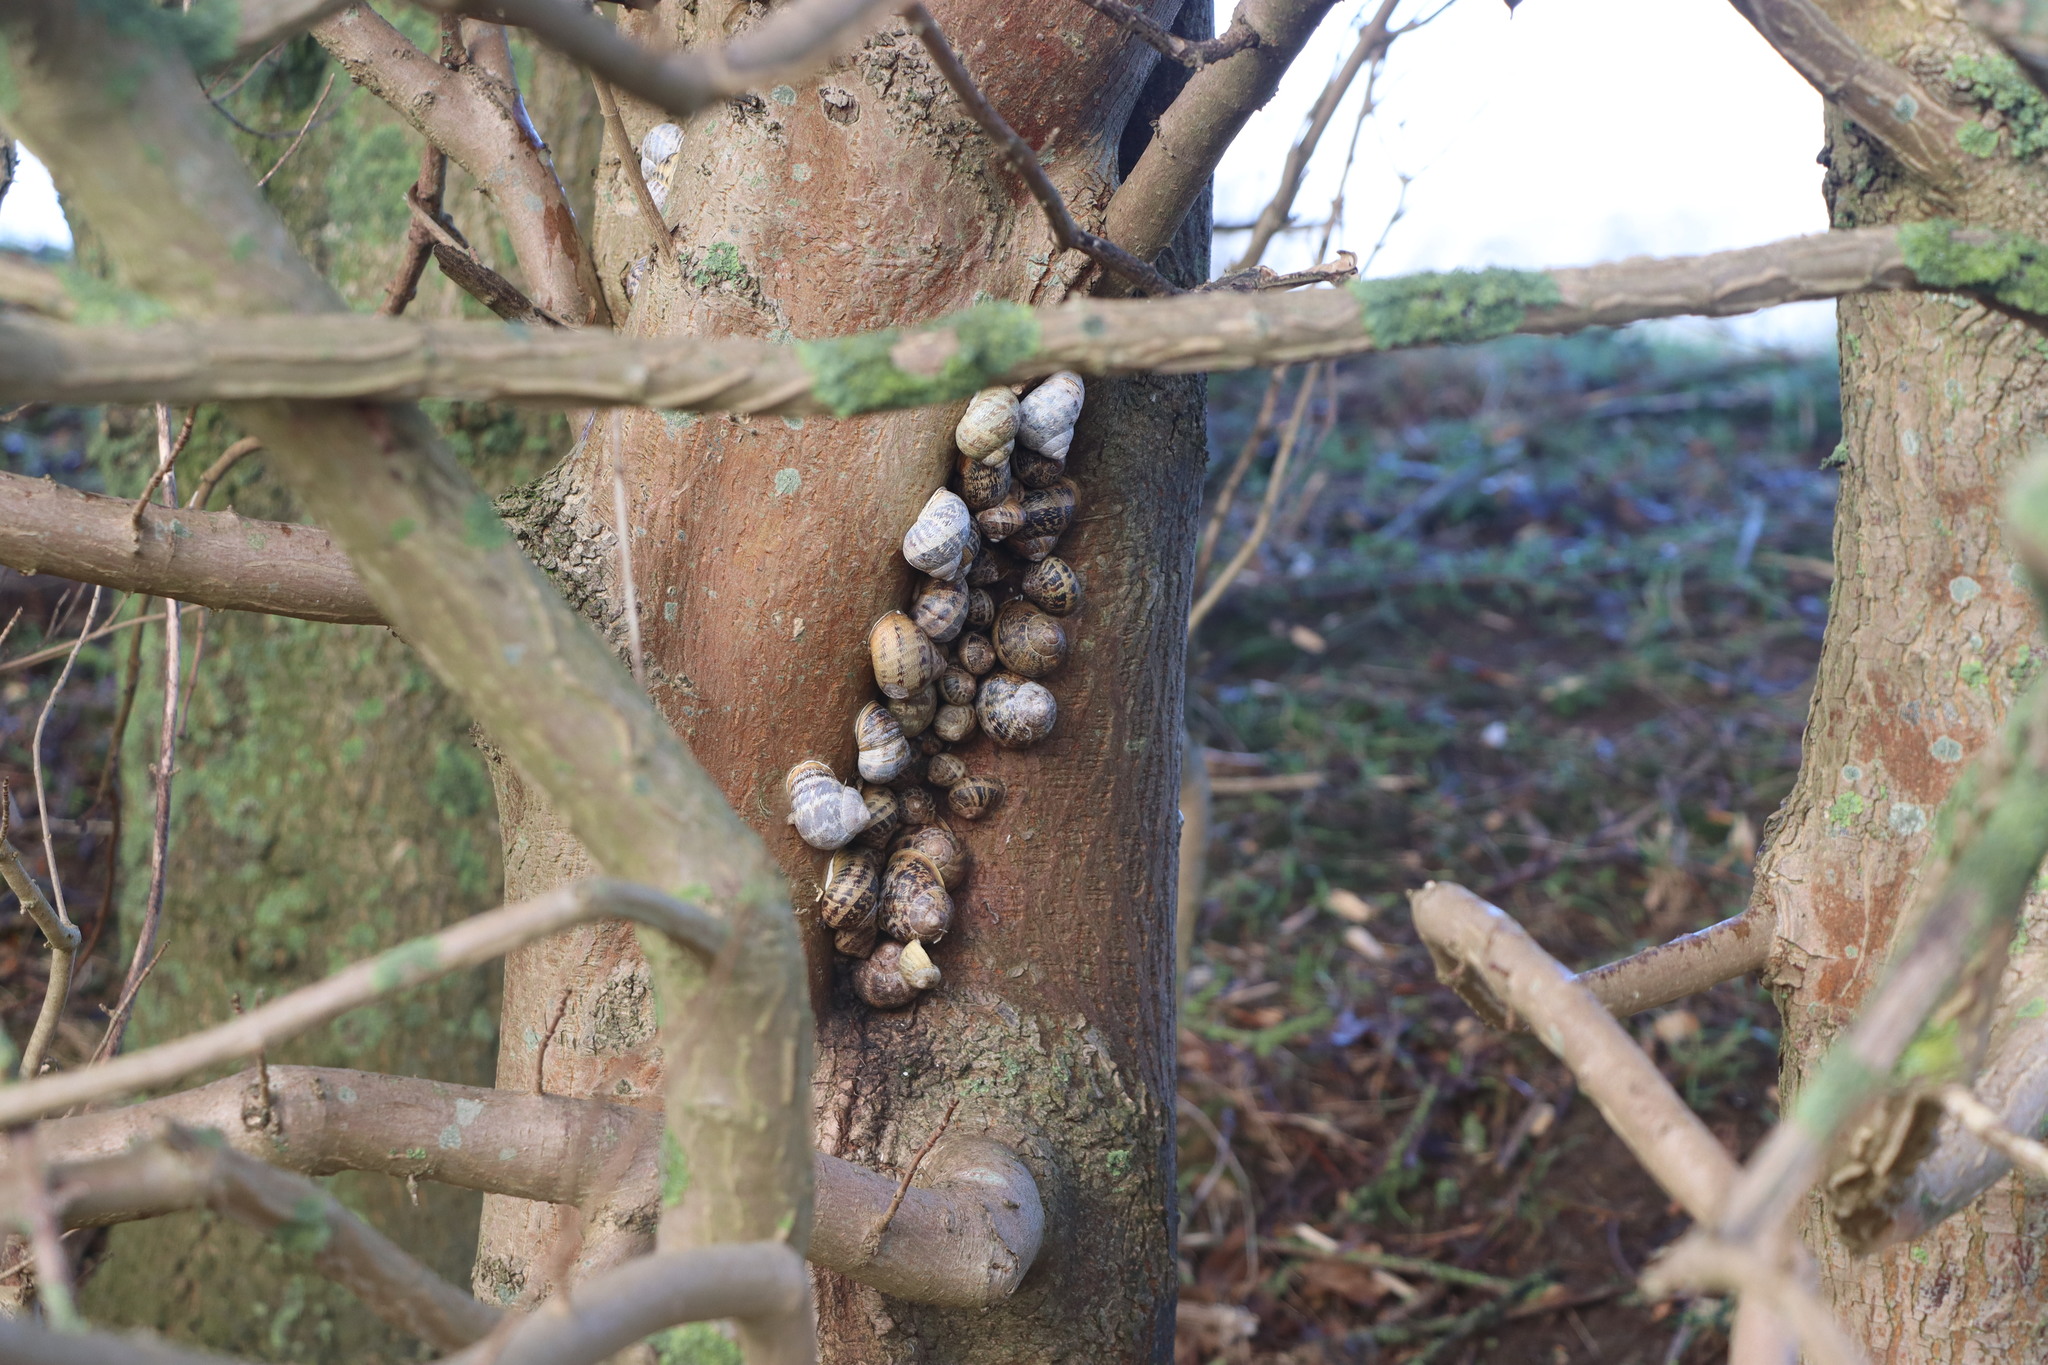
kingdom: Animalia
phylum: Mollusca
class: Gastropoda
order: Stylommatophora
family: Helicidae
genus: Cornu
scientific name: Cornu aspersum
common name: Brown garden snail
